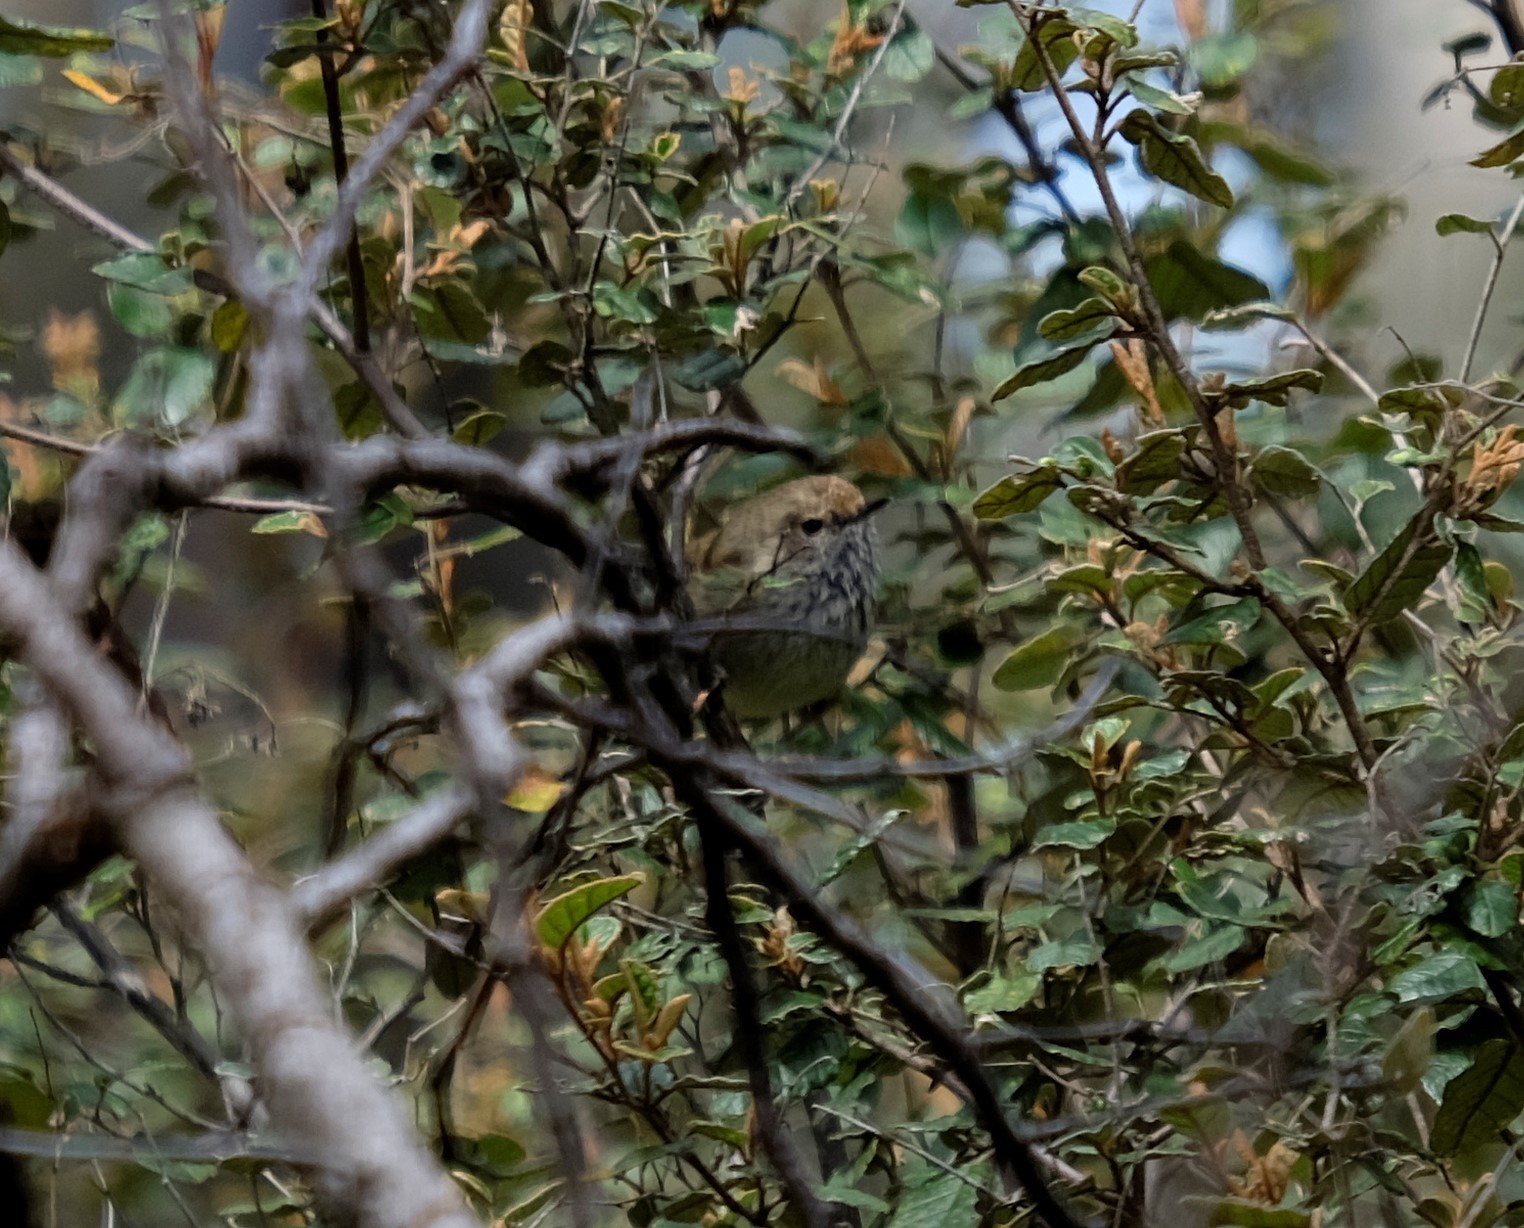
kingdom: Animalia
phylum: Chordata
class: Aves
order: Passeriformes
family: Acanthizidae
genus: Acanthiza
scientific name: Acanthiza pusilla
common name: Brown thornbill
